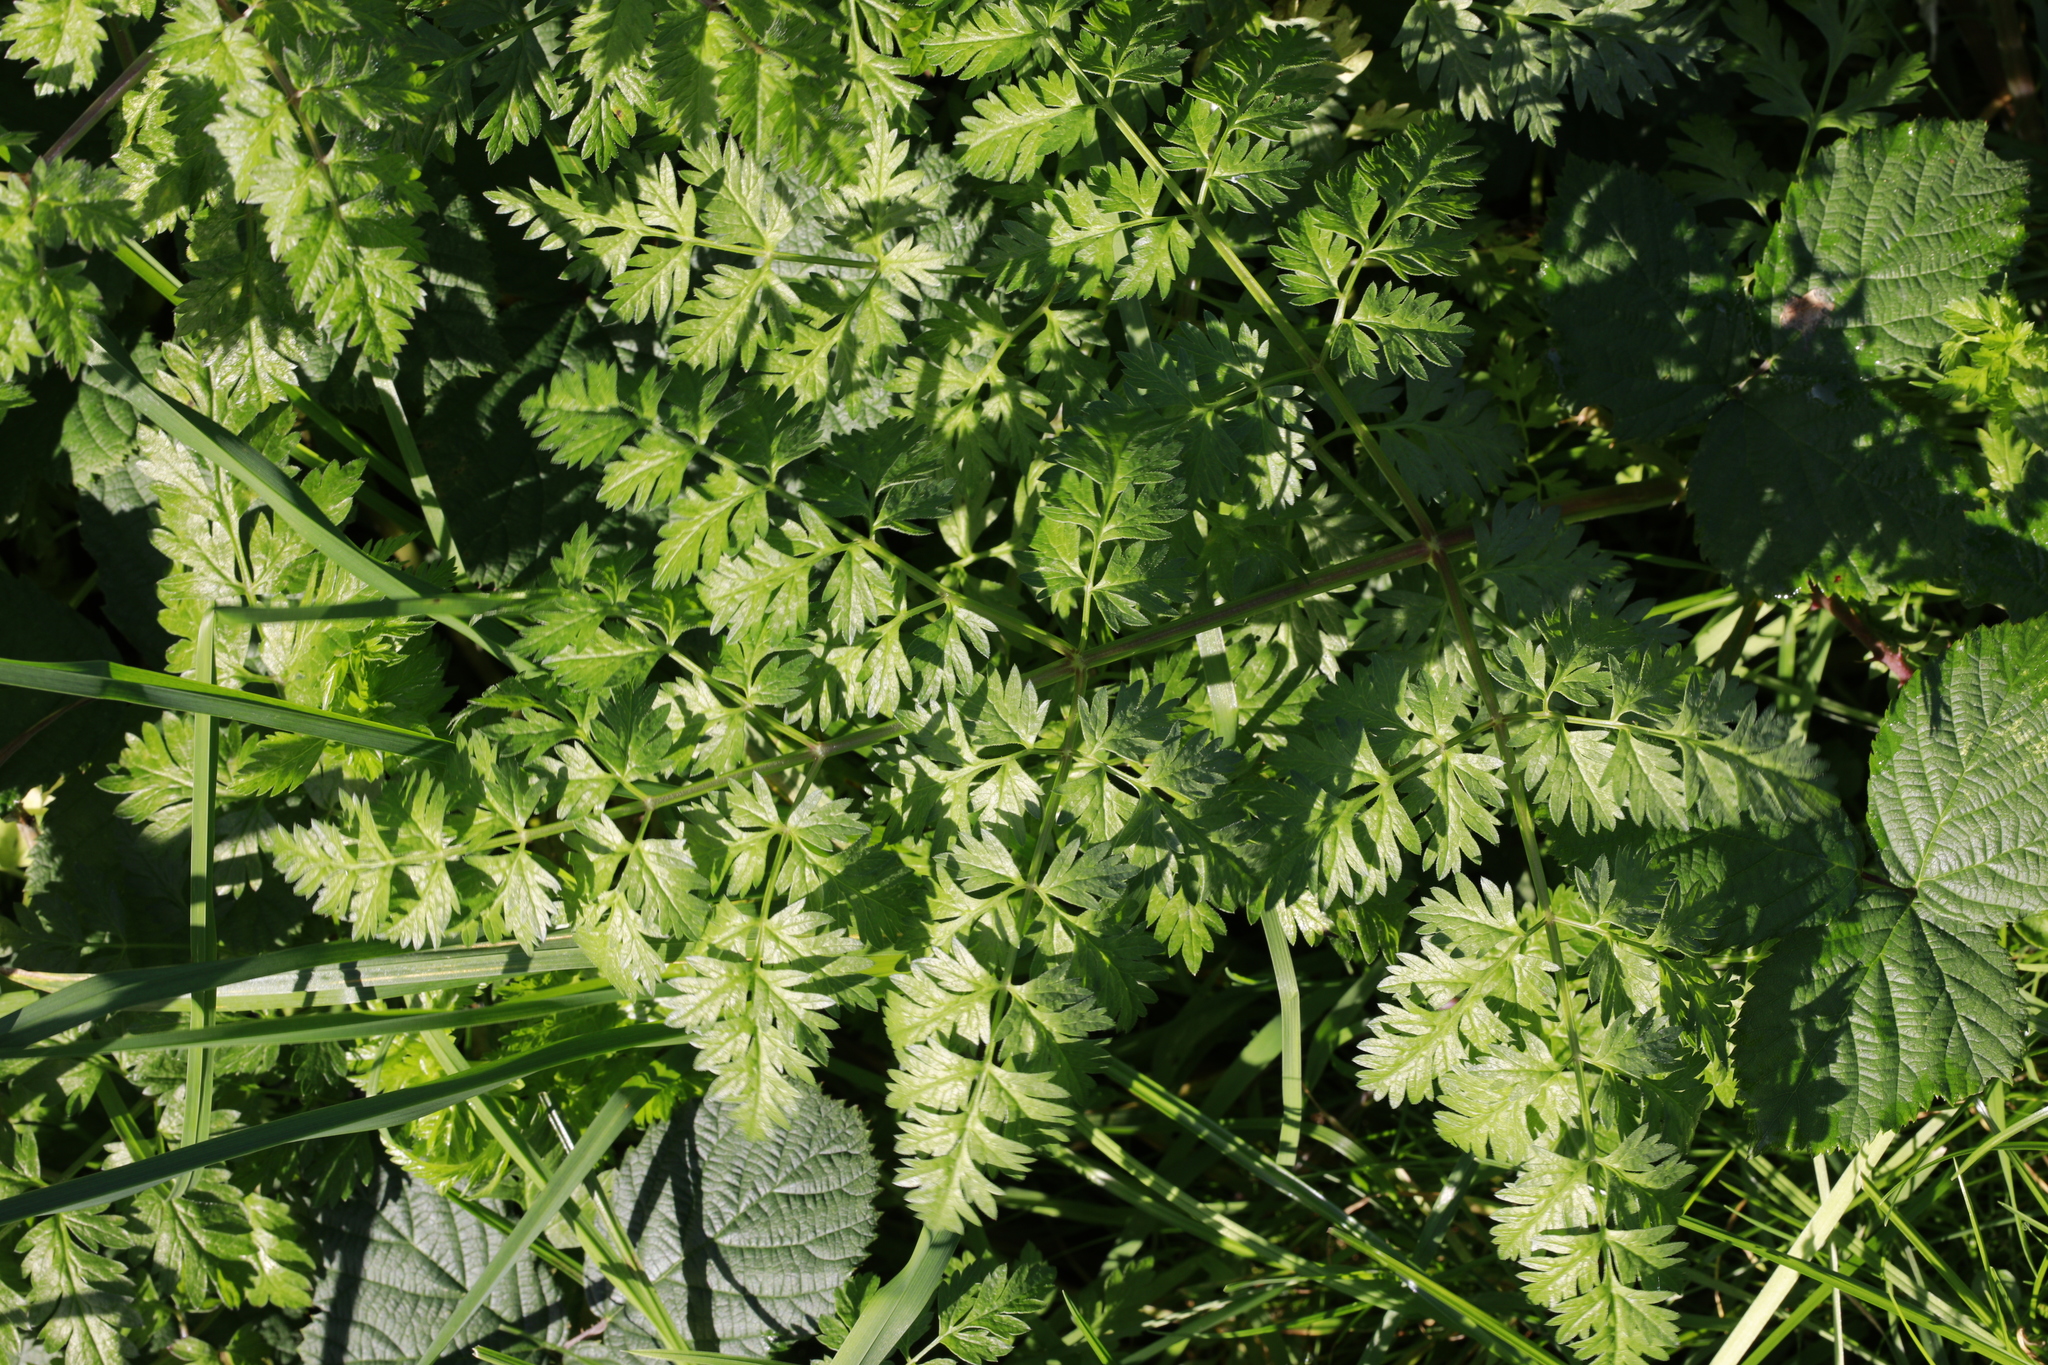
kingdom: Plantae
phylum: Tracheophyta
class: Magnoliopsida
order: Apiales
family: Apiaceae
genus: Anthriscus
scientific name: Anthriscus sylvestris
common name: Cow parsley
